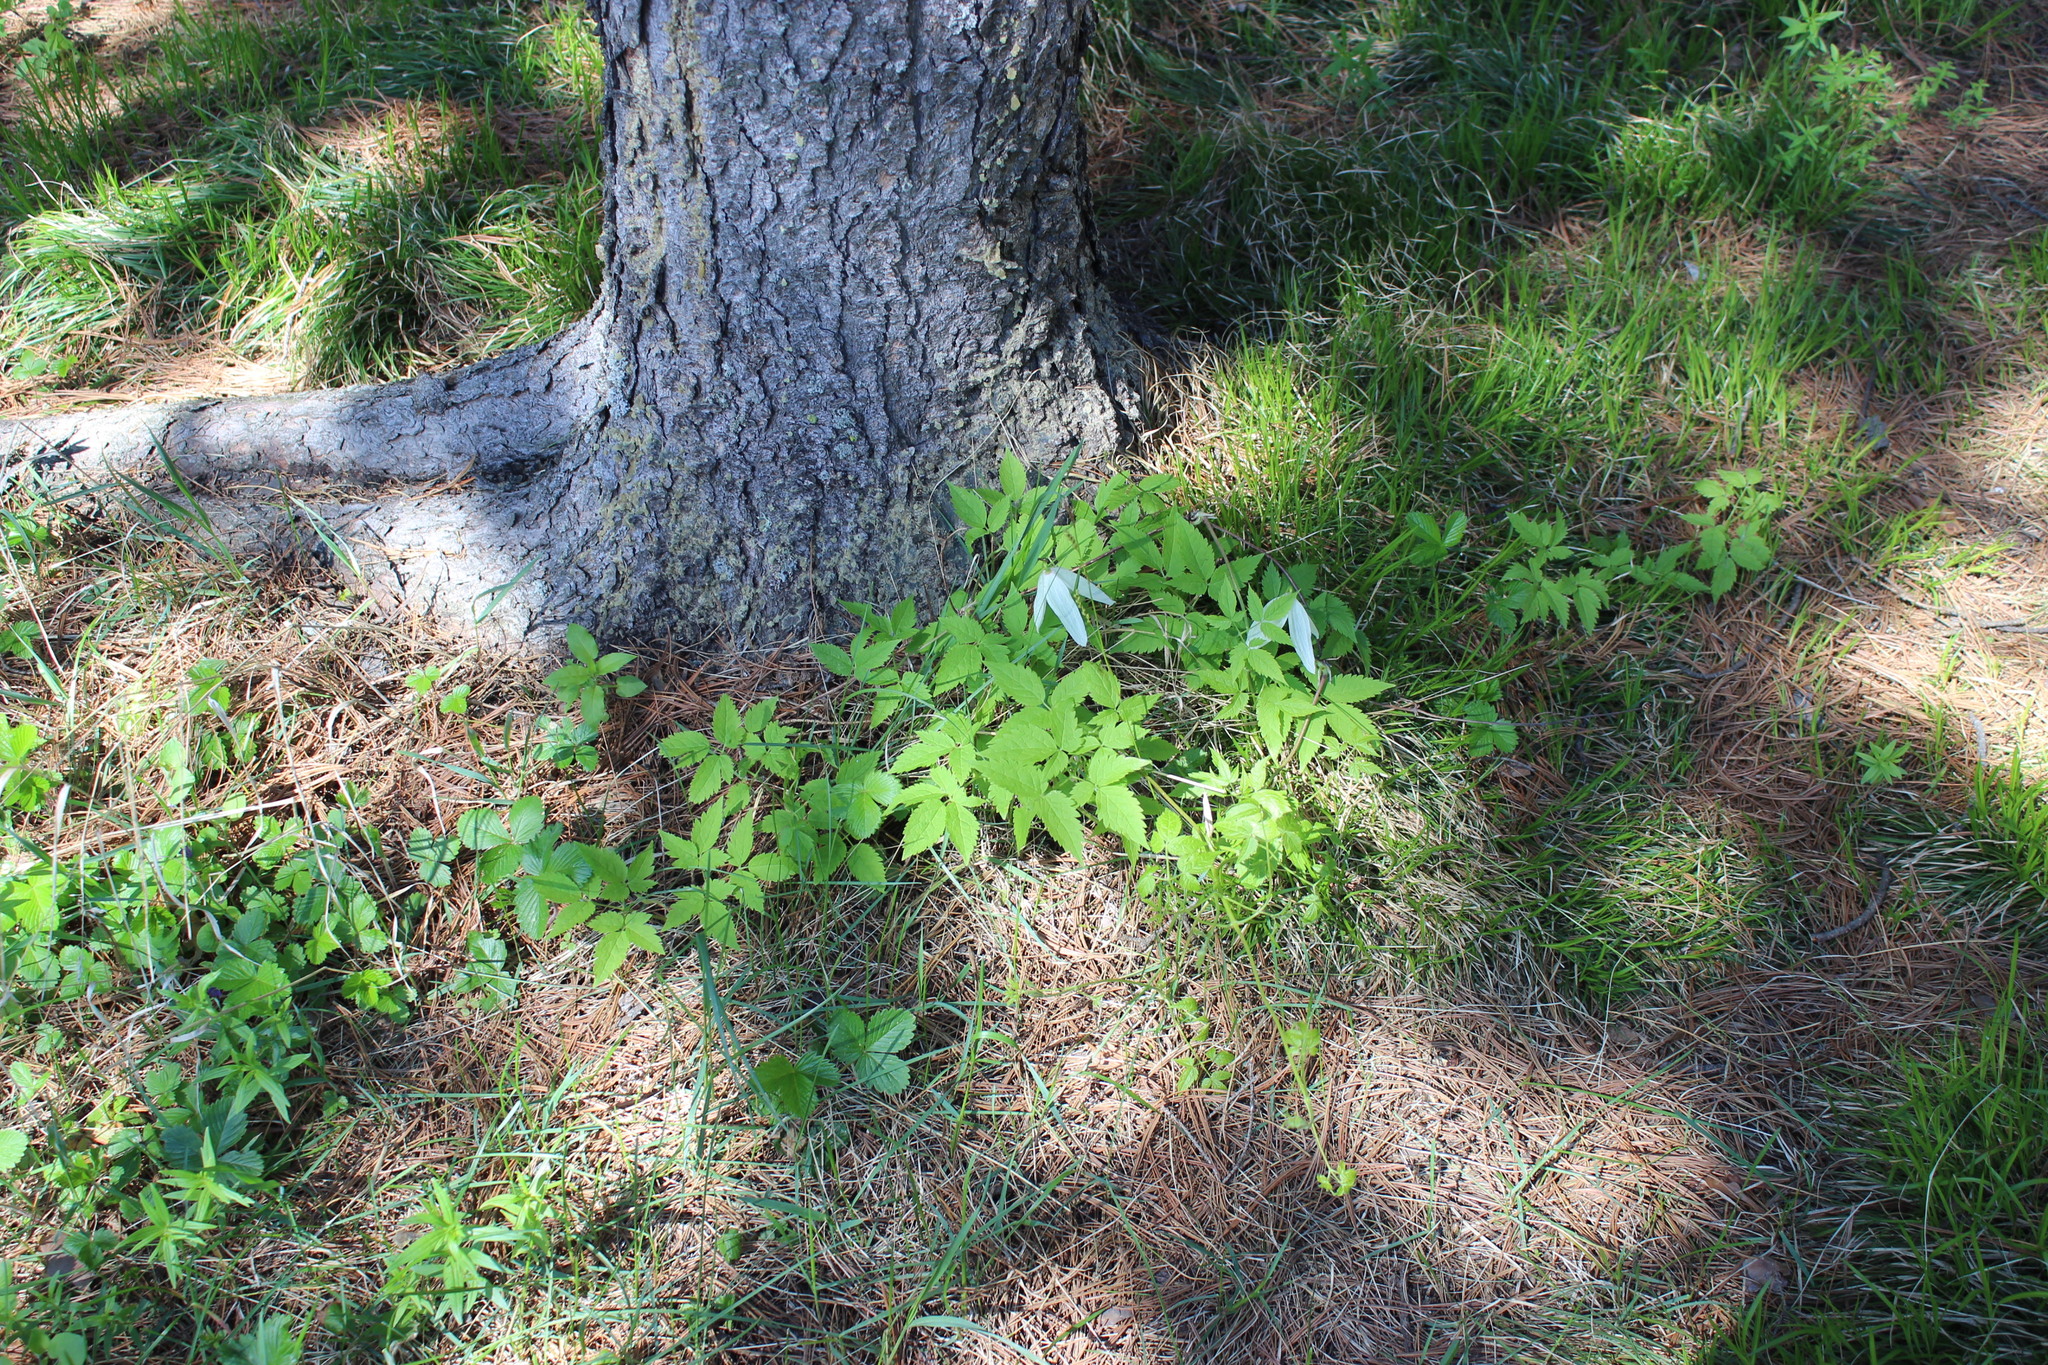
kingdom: Plantae
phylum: Tracheophyta
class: Magnoliopsida
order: Ranunculales
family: Ranunculaceae
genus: Clematis
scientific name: Clematis sibirica
